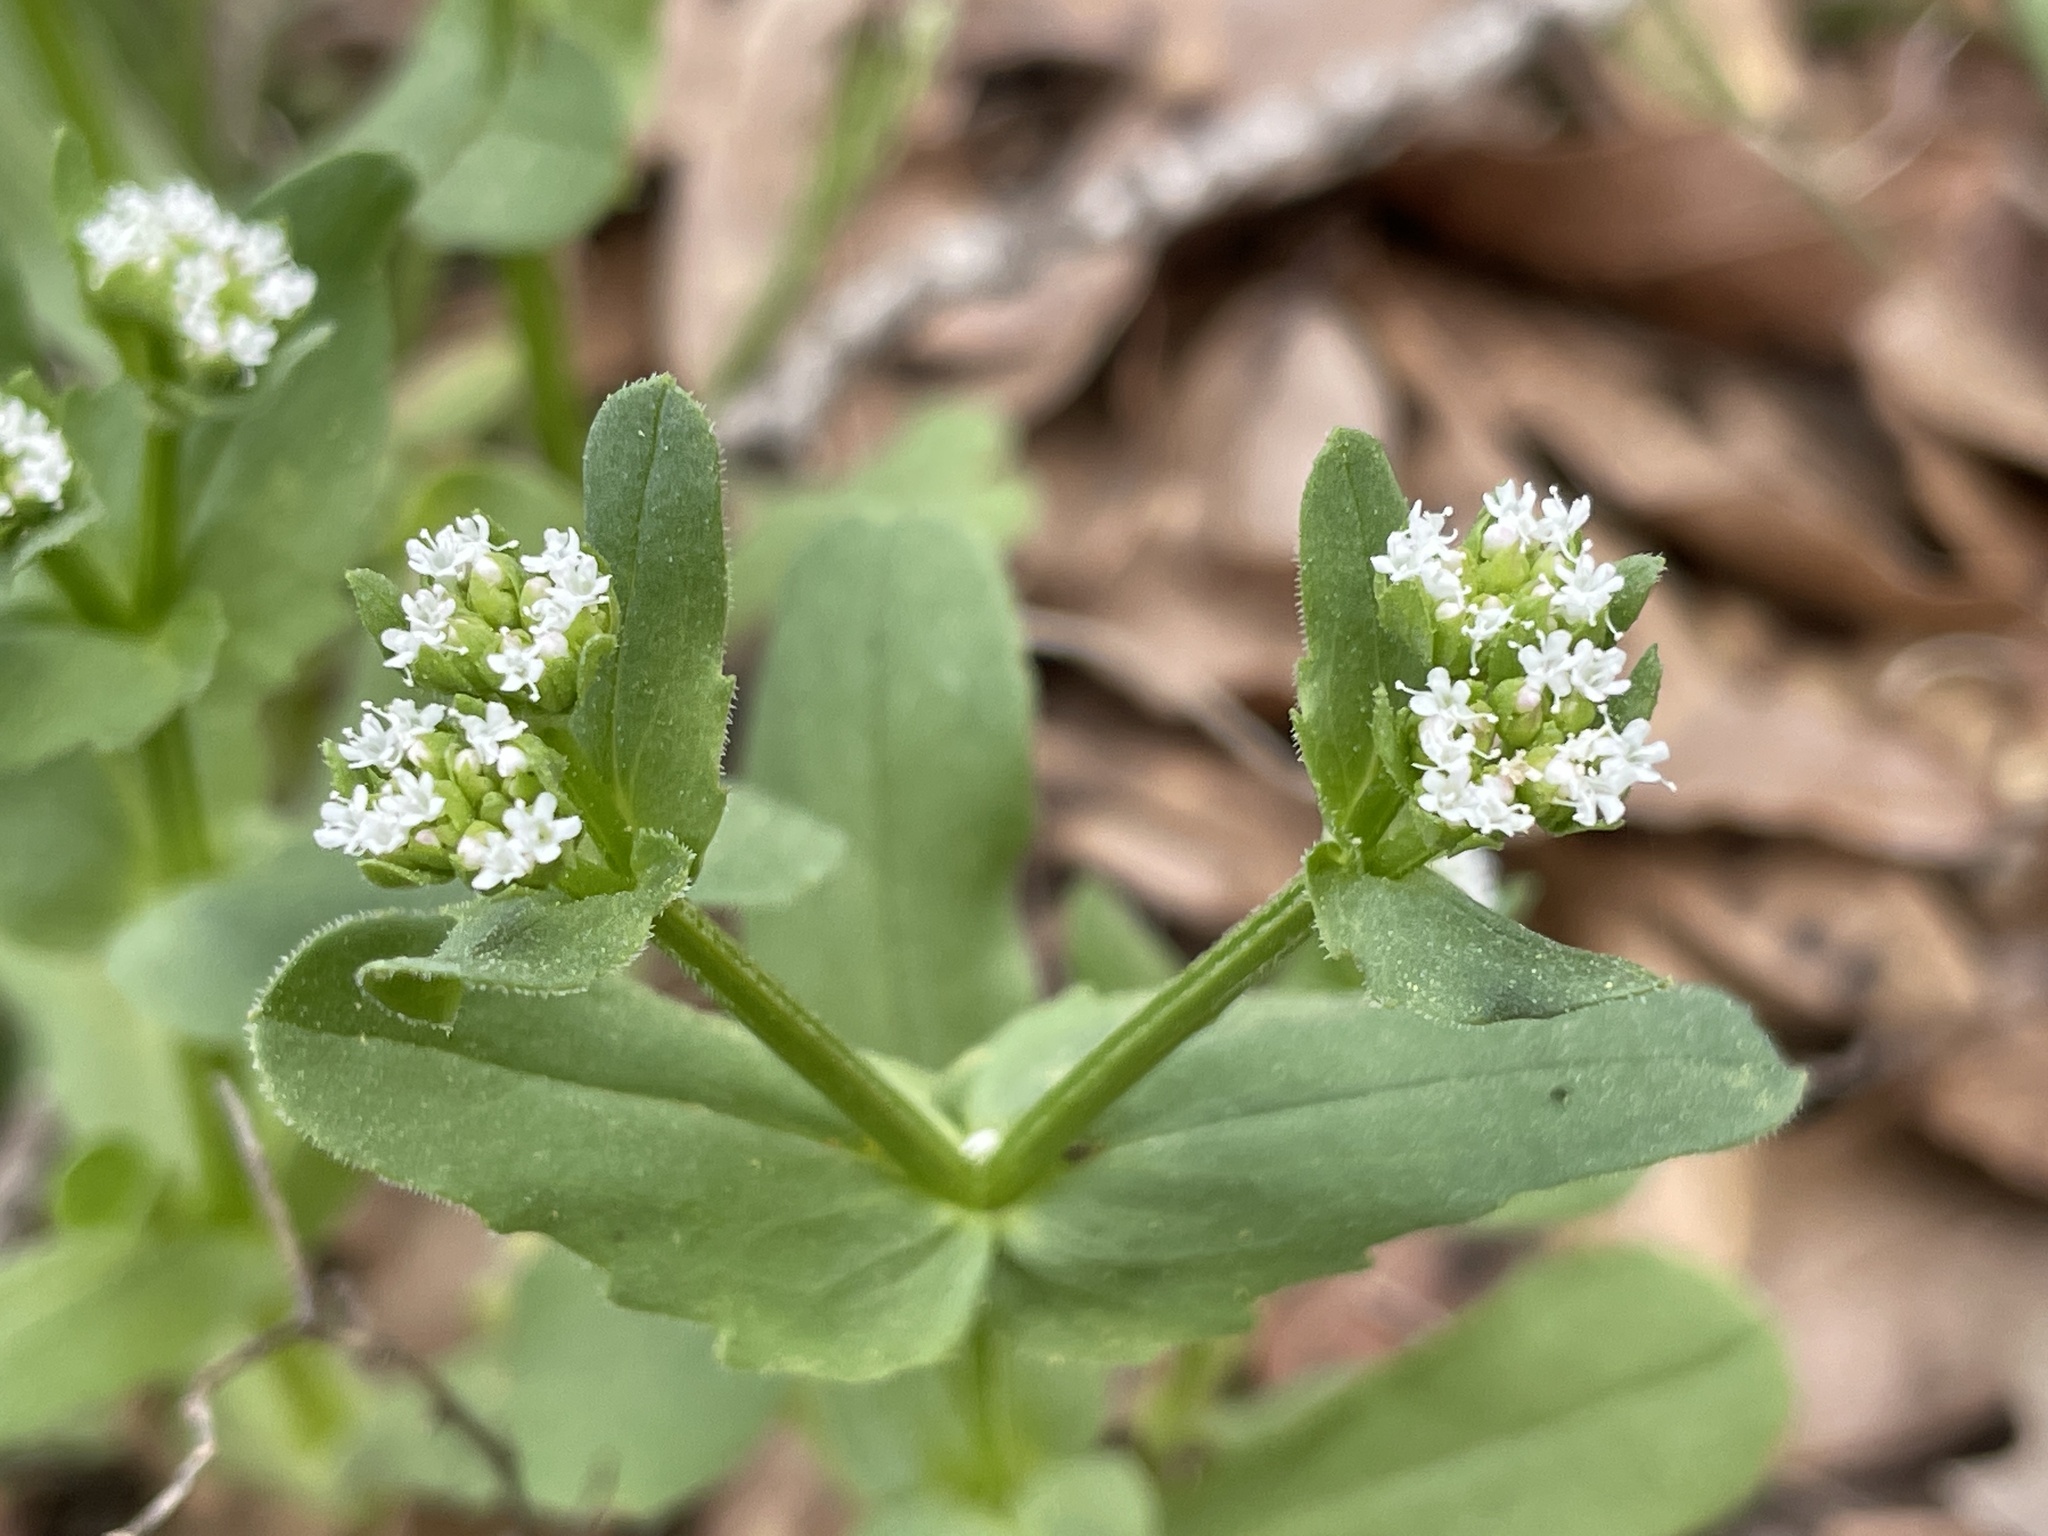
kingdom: Plantae
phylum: Tracheophyta
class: Magnoliopsida
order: Dipsacales
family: Caprifoliaceae
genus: Valerianella
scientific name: Valerianella radiata
